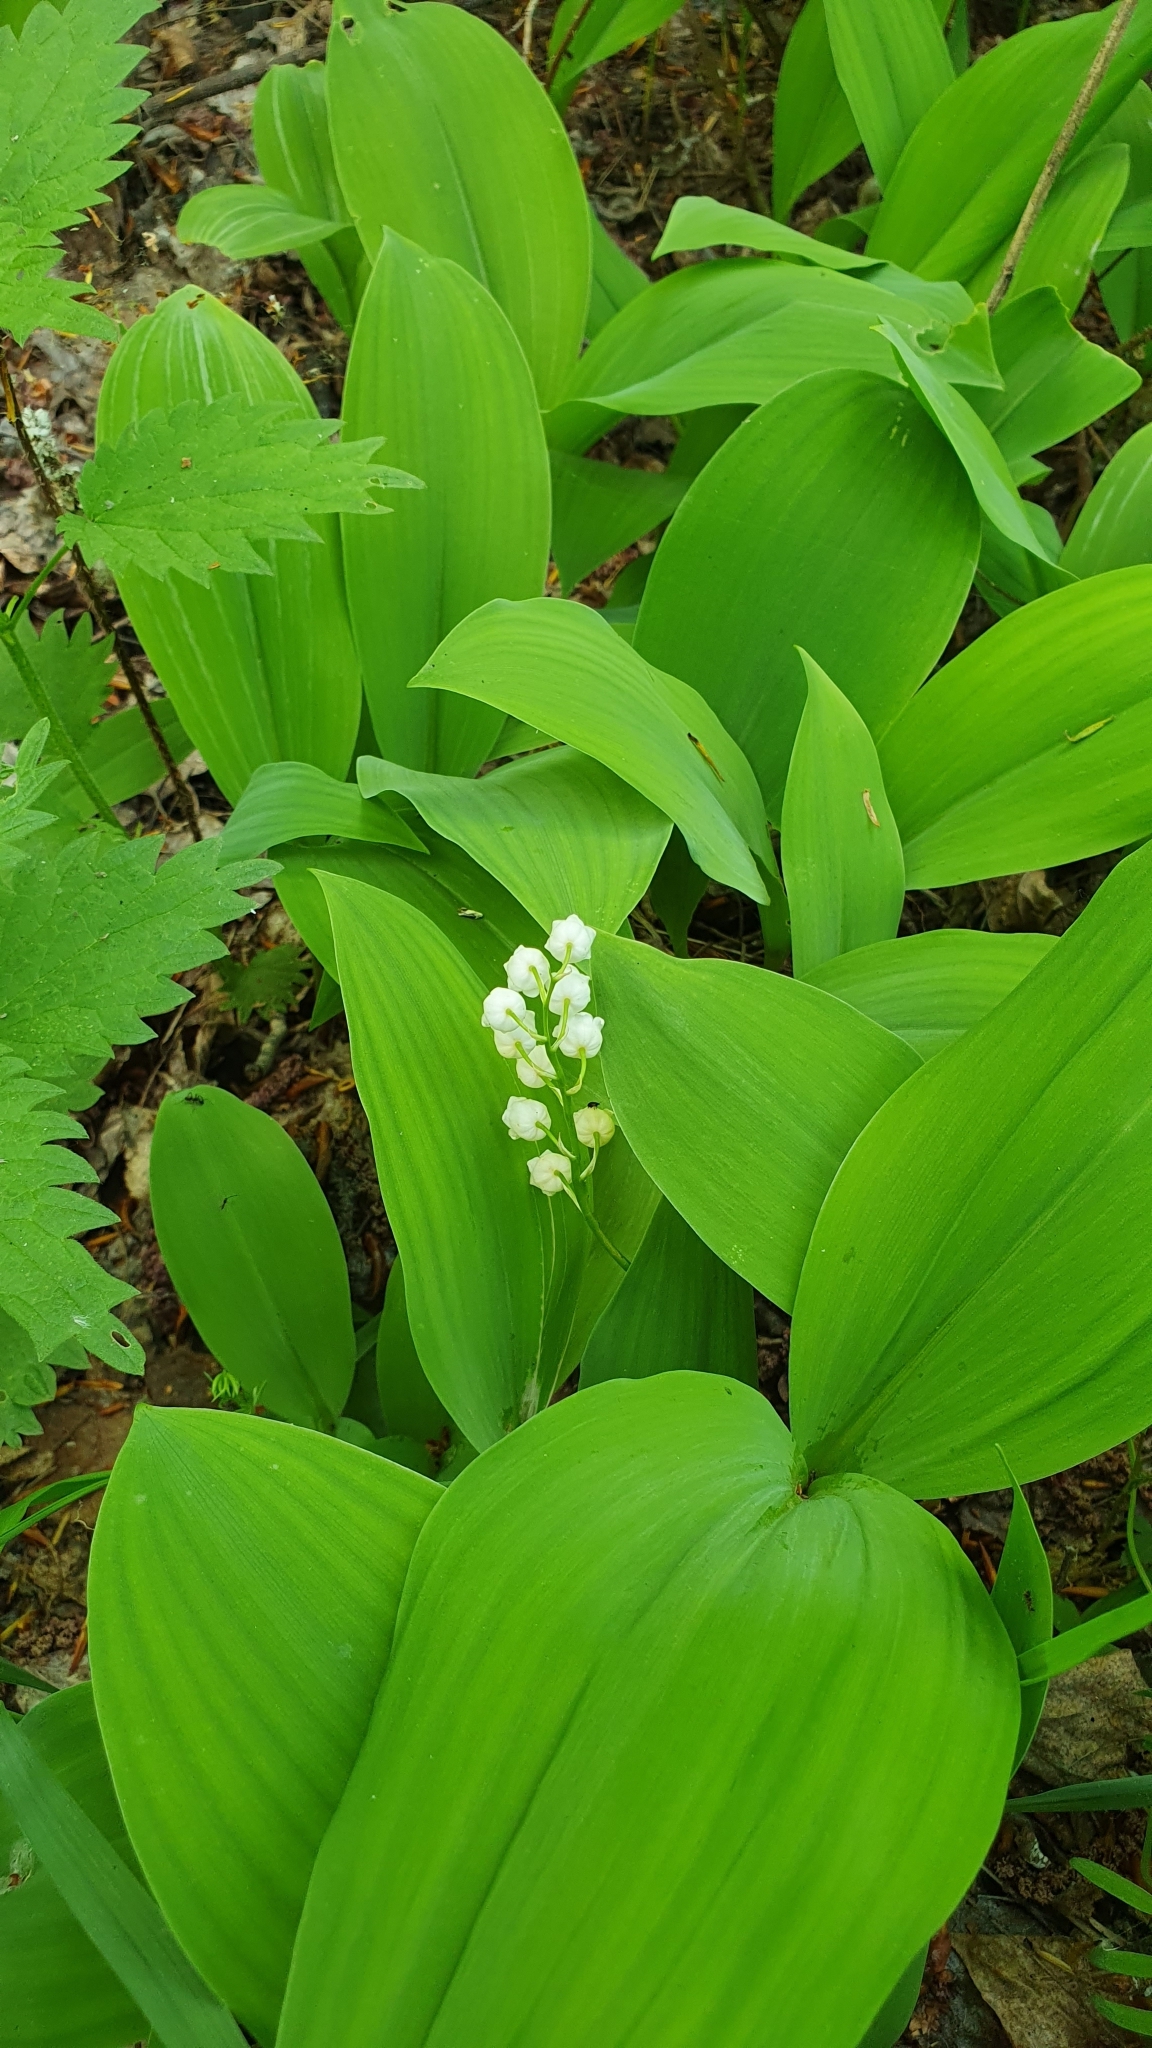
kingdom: Plantae
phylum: Tracheophyta
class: Liliopsida
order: Asparagales
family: Asparagaceae
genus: Convallaria
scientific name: Convallaria majalis
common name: Lily-of-the-valley
